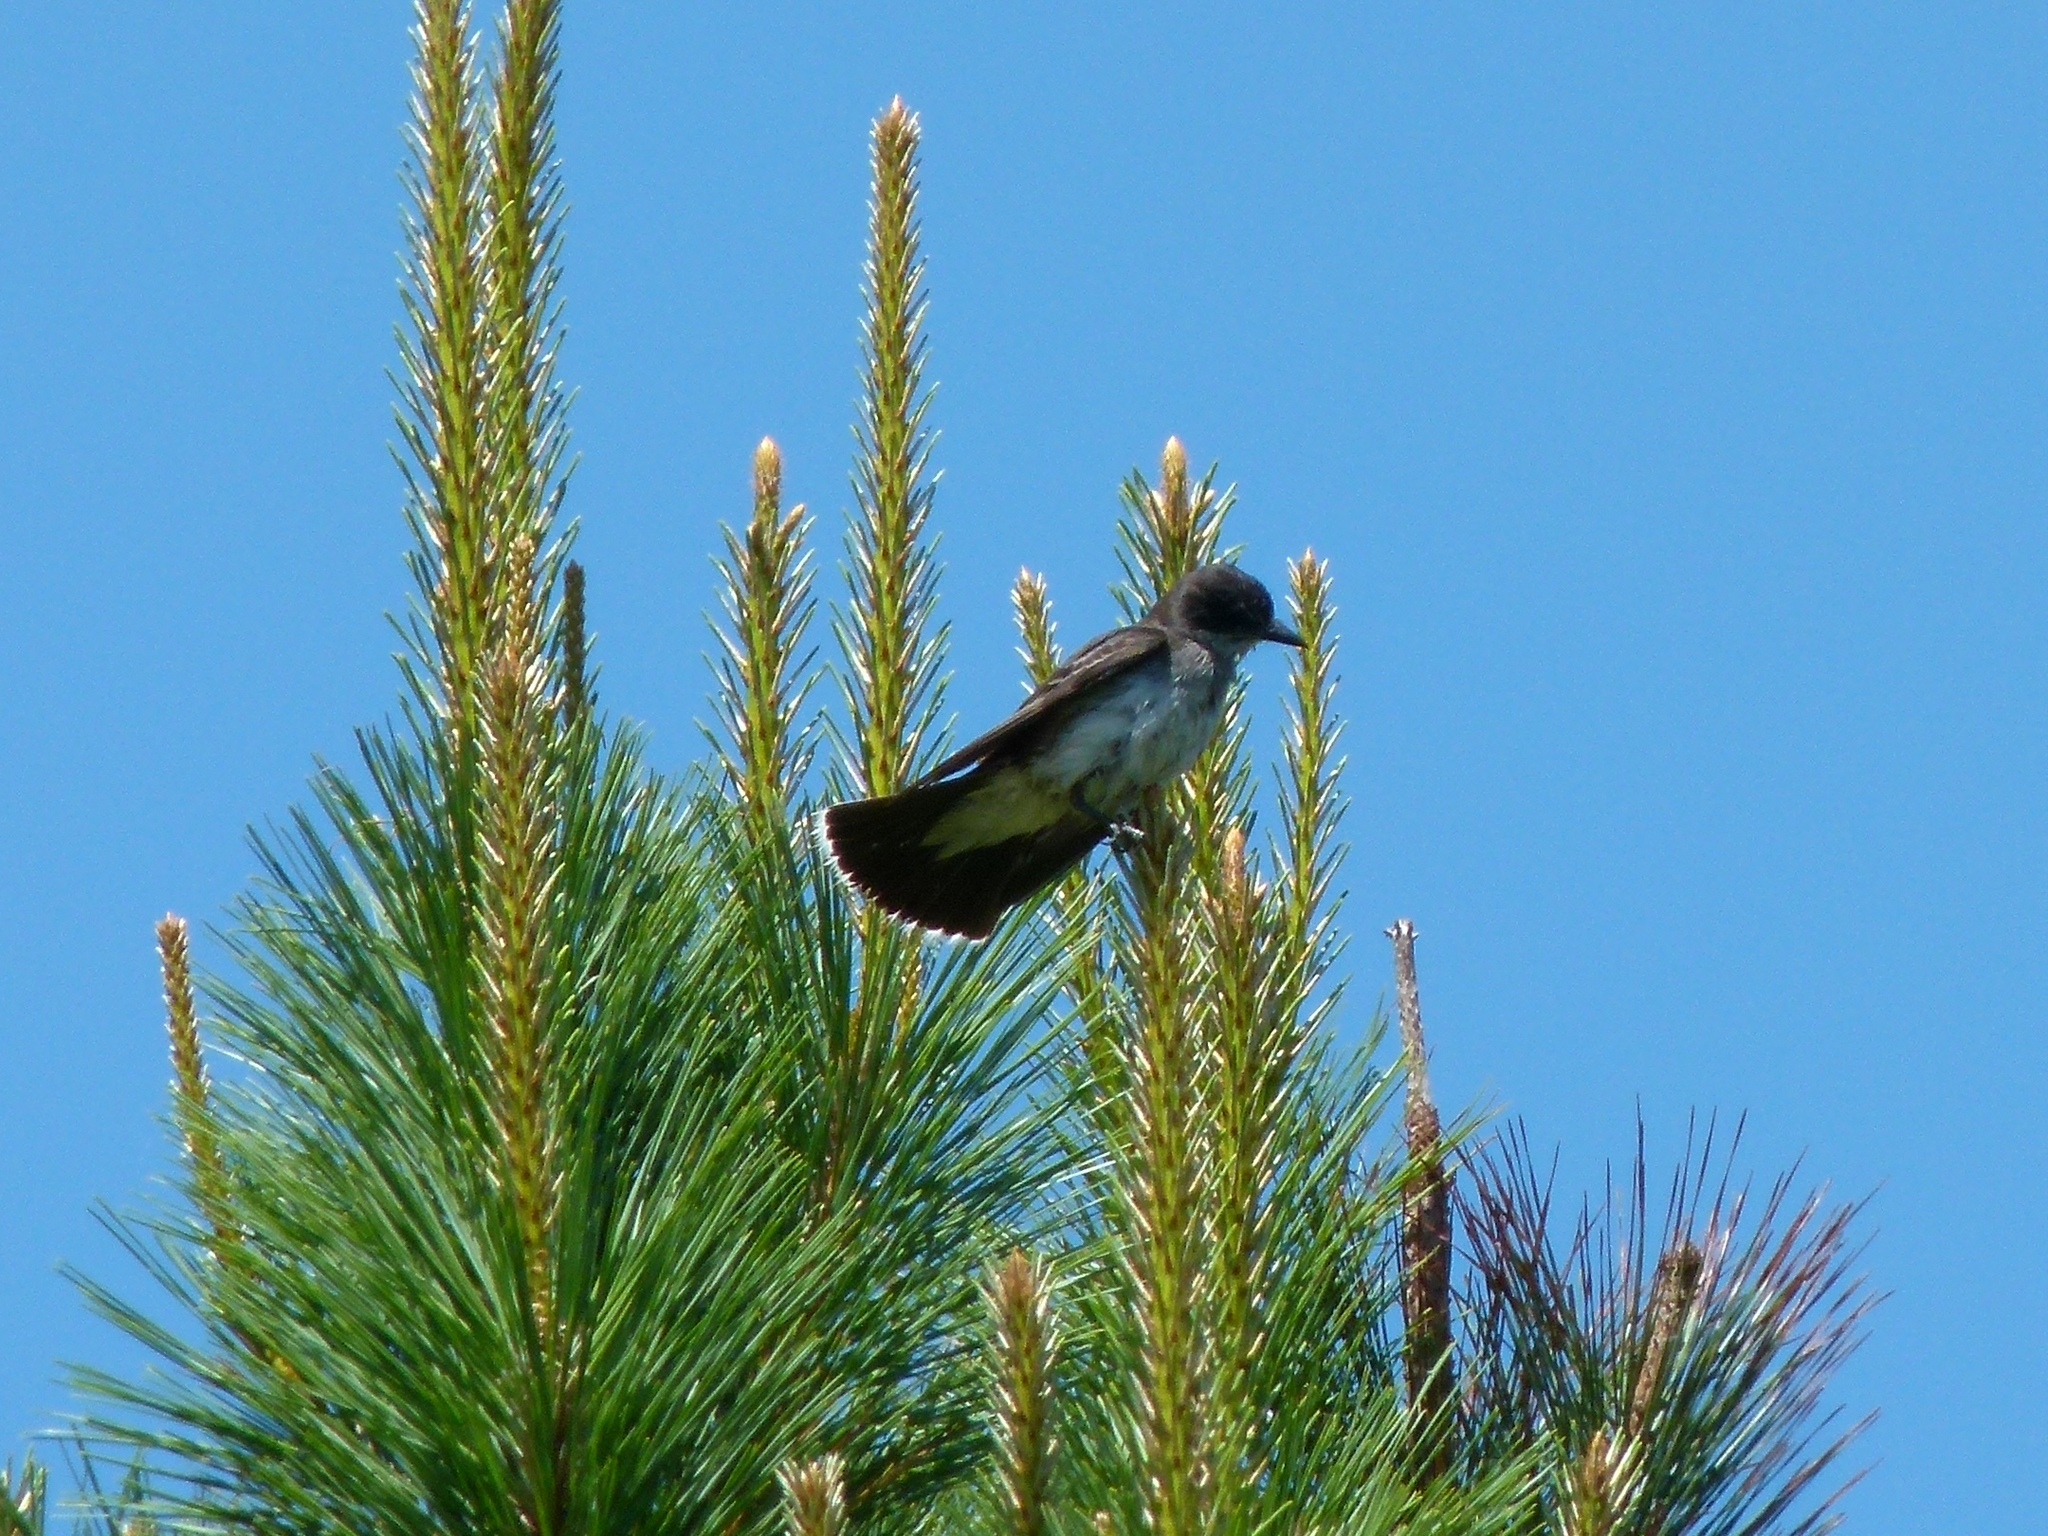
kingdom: Animalia
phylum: Chordata
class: Aves
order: Passeriformes
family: Tyrannidae
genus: Tyrannus
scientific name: Tyrannus tyrannus
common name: Eastern kingbird
